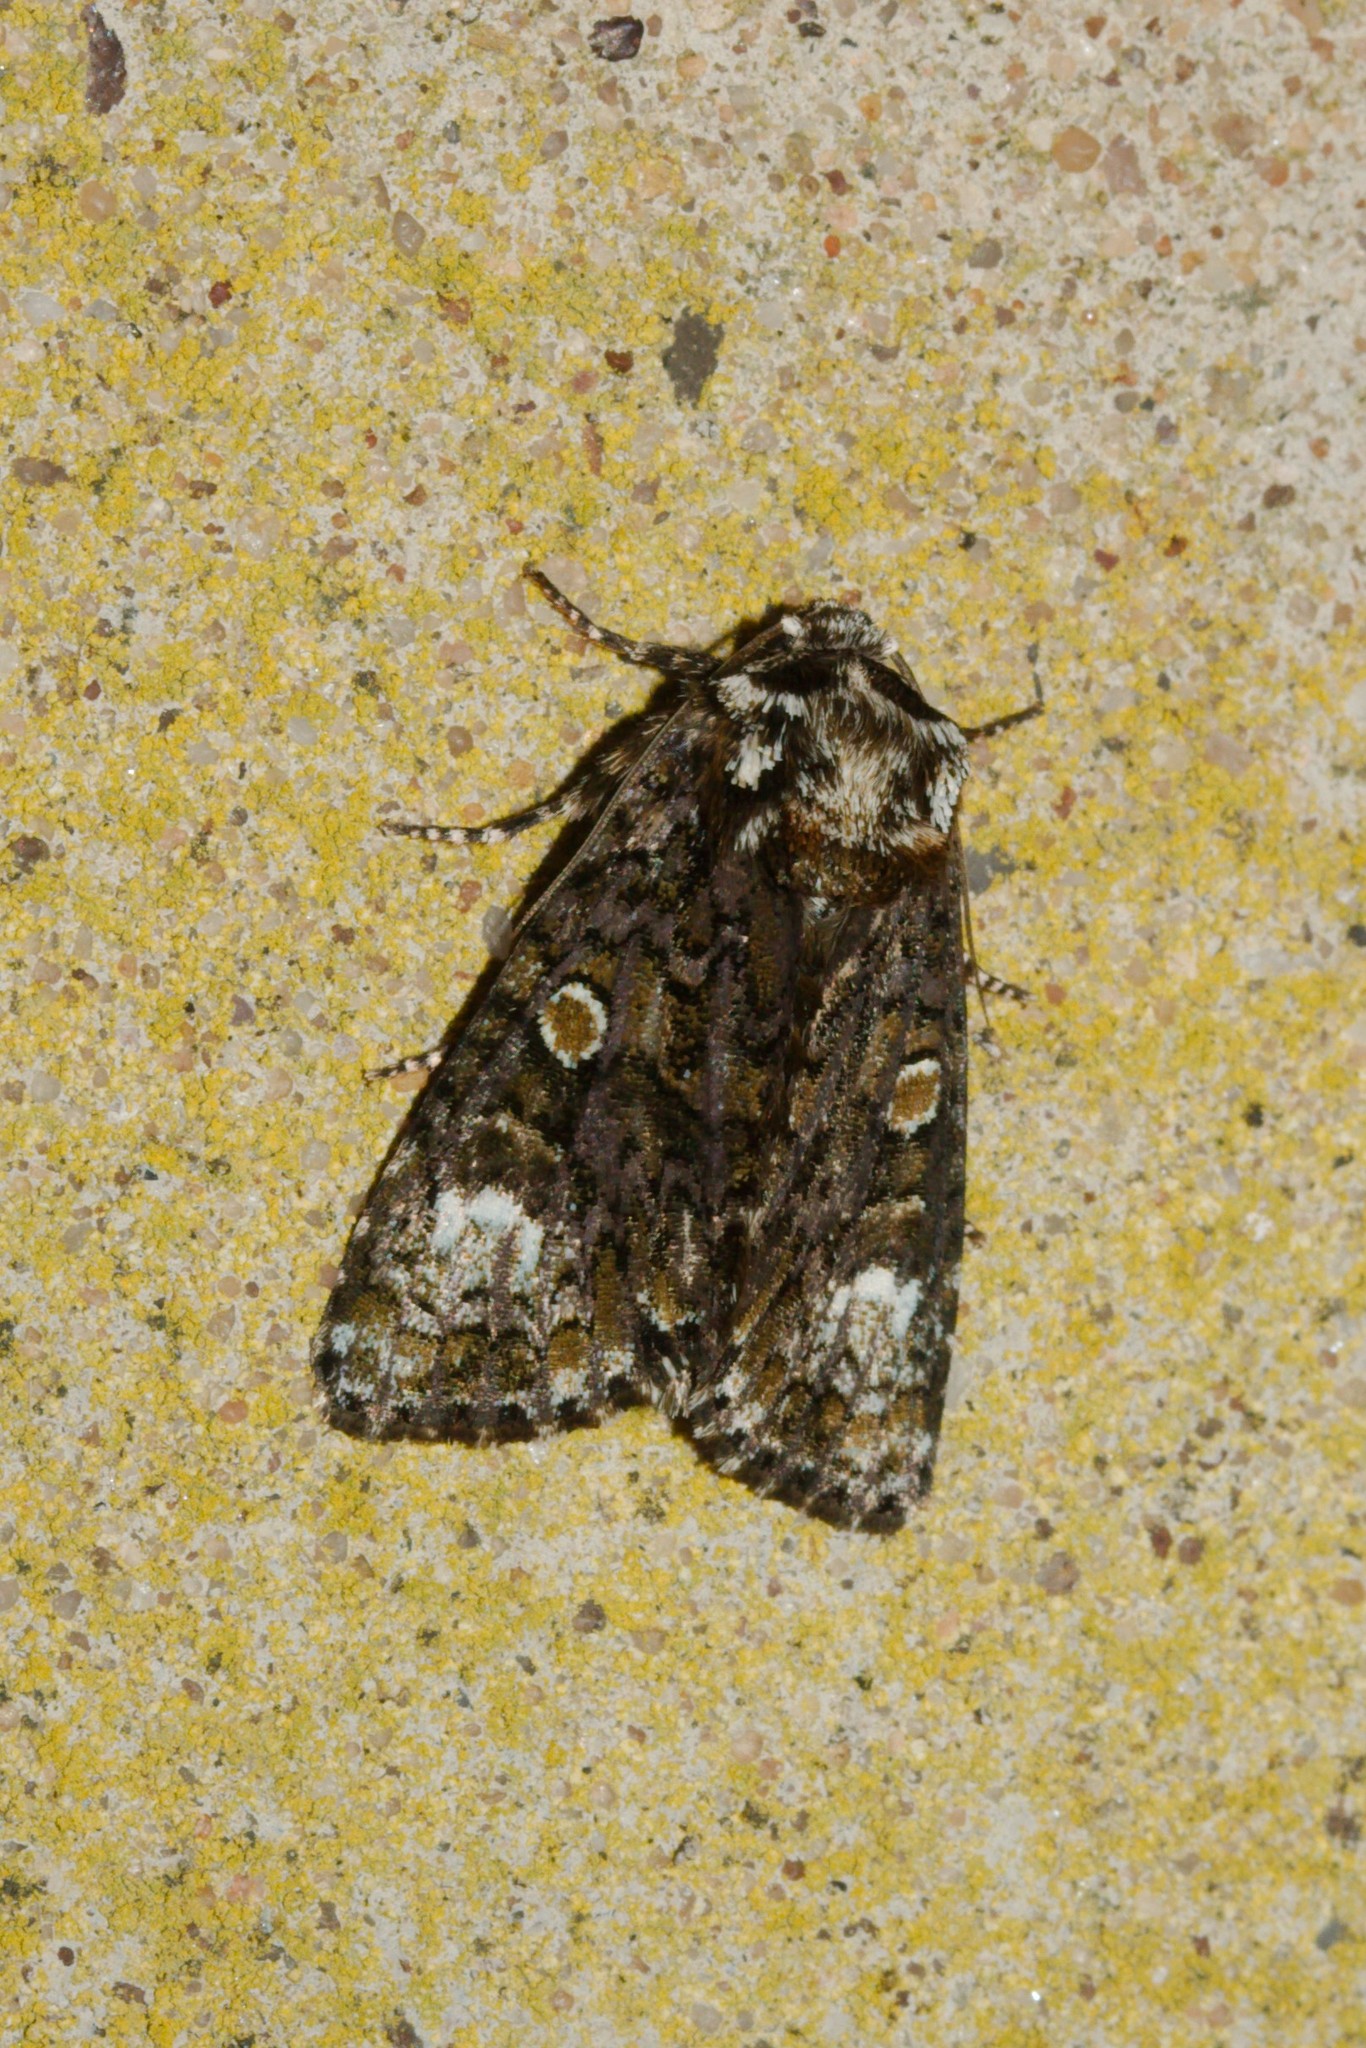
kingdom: Animalia
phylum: Arthropoda
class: Insecta
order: Lepidoptera
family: Noctuidae
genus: Craniophora
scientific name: Craniophora ligustri
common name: Coronet
